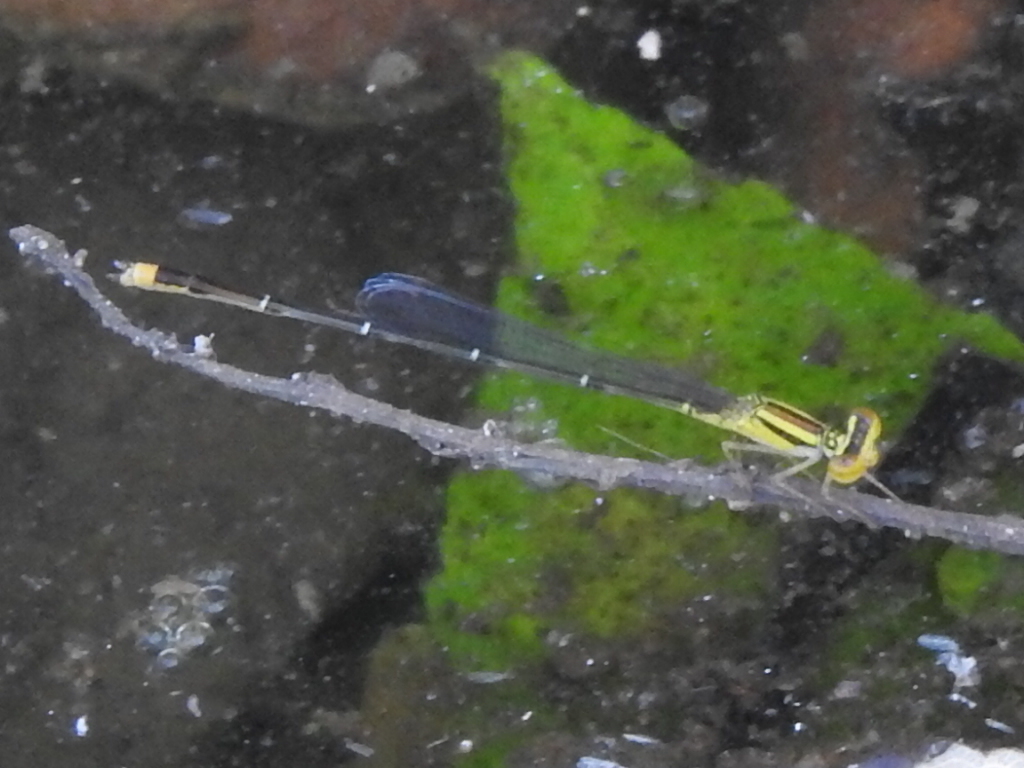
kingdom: Animalia
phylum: Arthropoda
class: Insecta
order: Odonata
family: Coenagrionidae
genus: Enallagma
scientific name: Enallagma signatum
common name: Orange bluet
